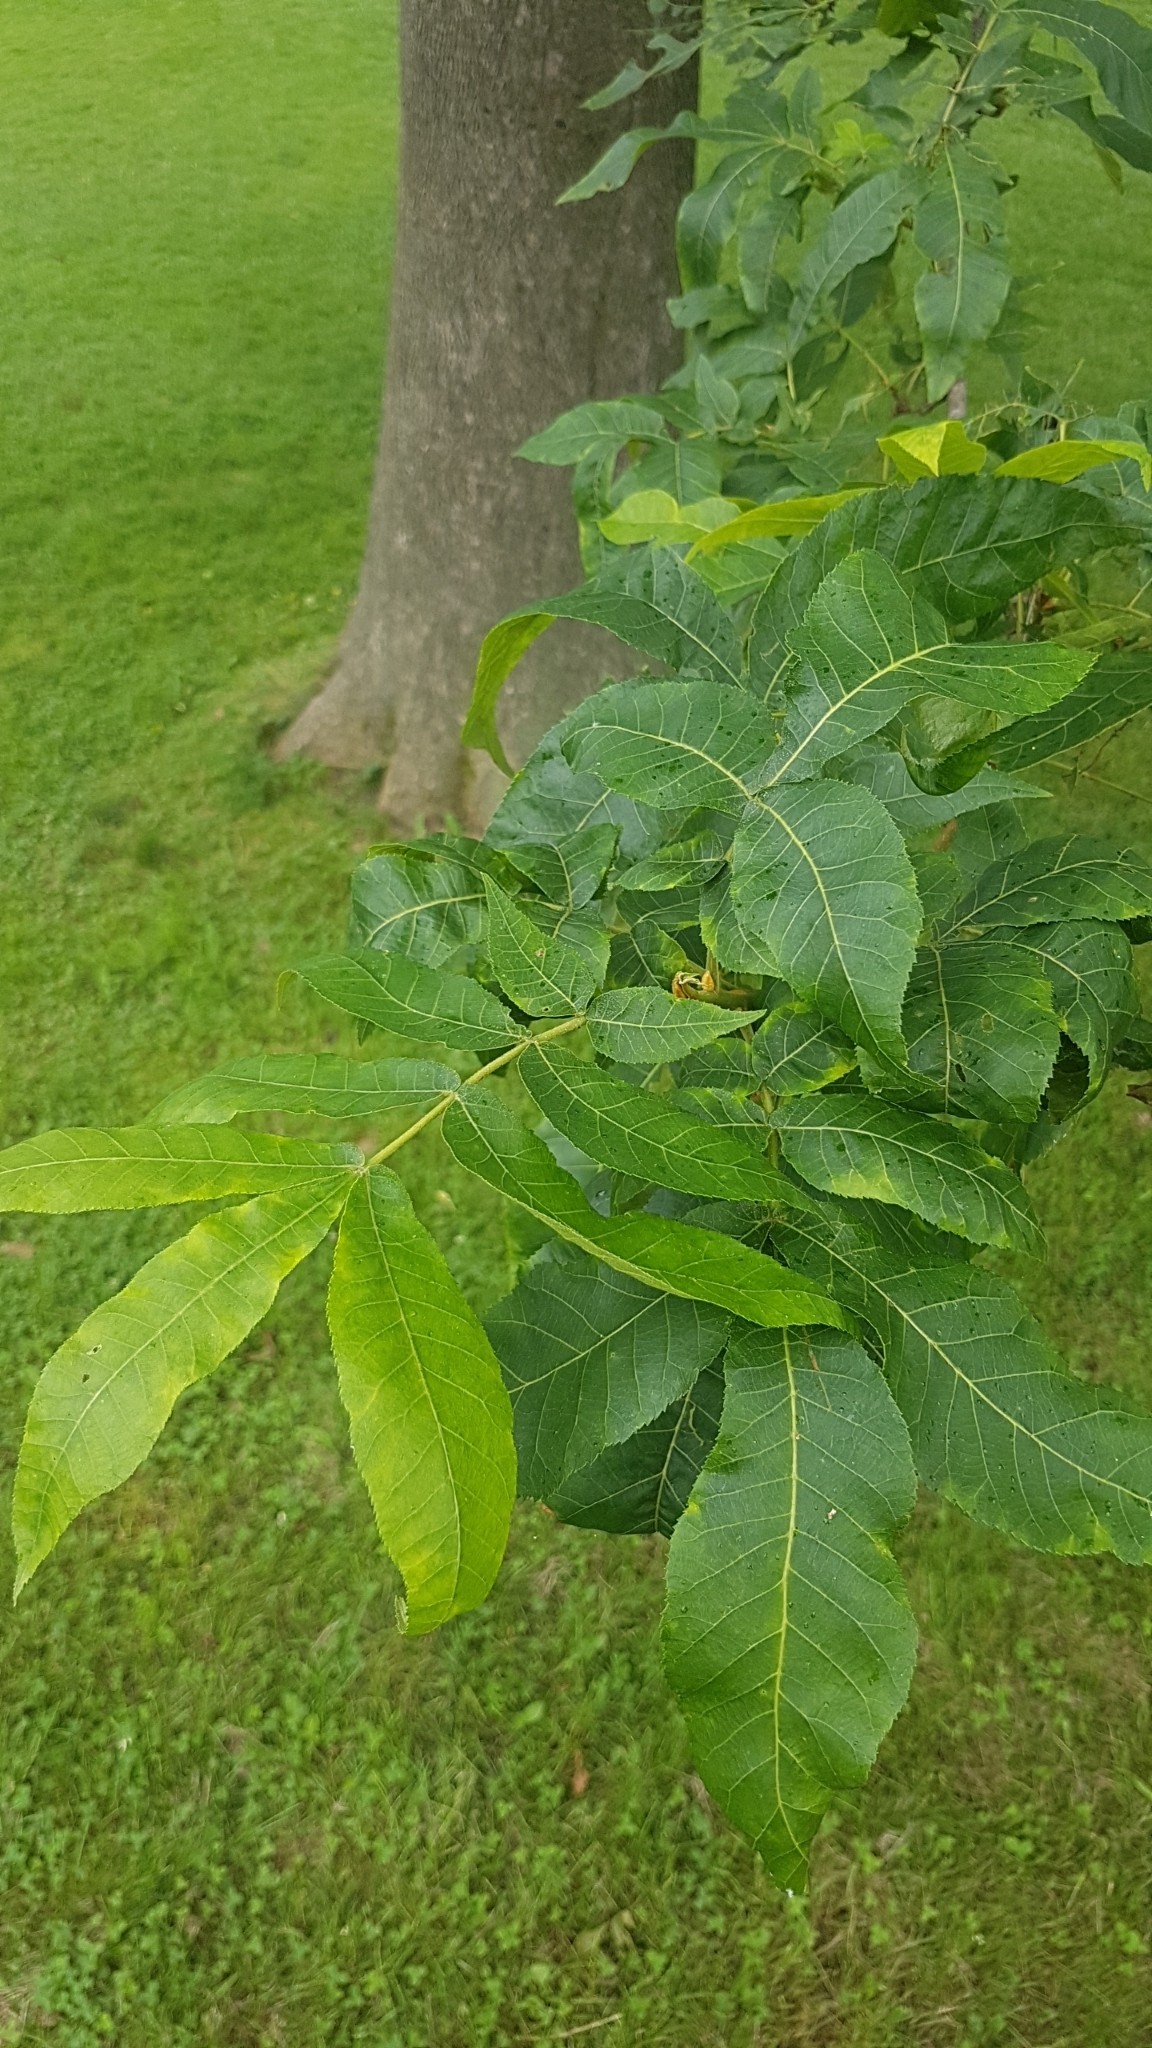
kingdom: Plantae
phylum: Tracheophyta
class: Magnoliopsida
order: Fagales
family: Juglandaceae
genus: Carya
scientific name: Carya cordiformis
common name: Bitternut hickory
